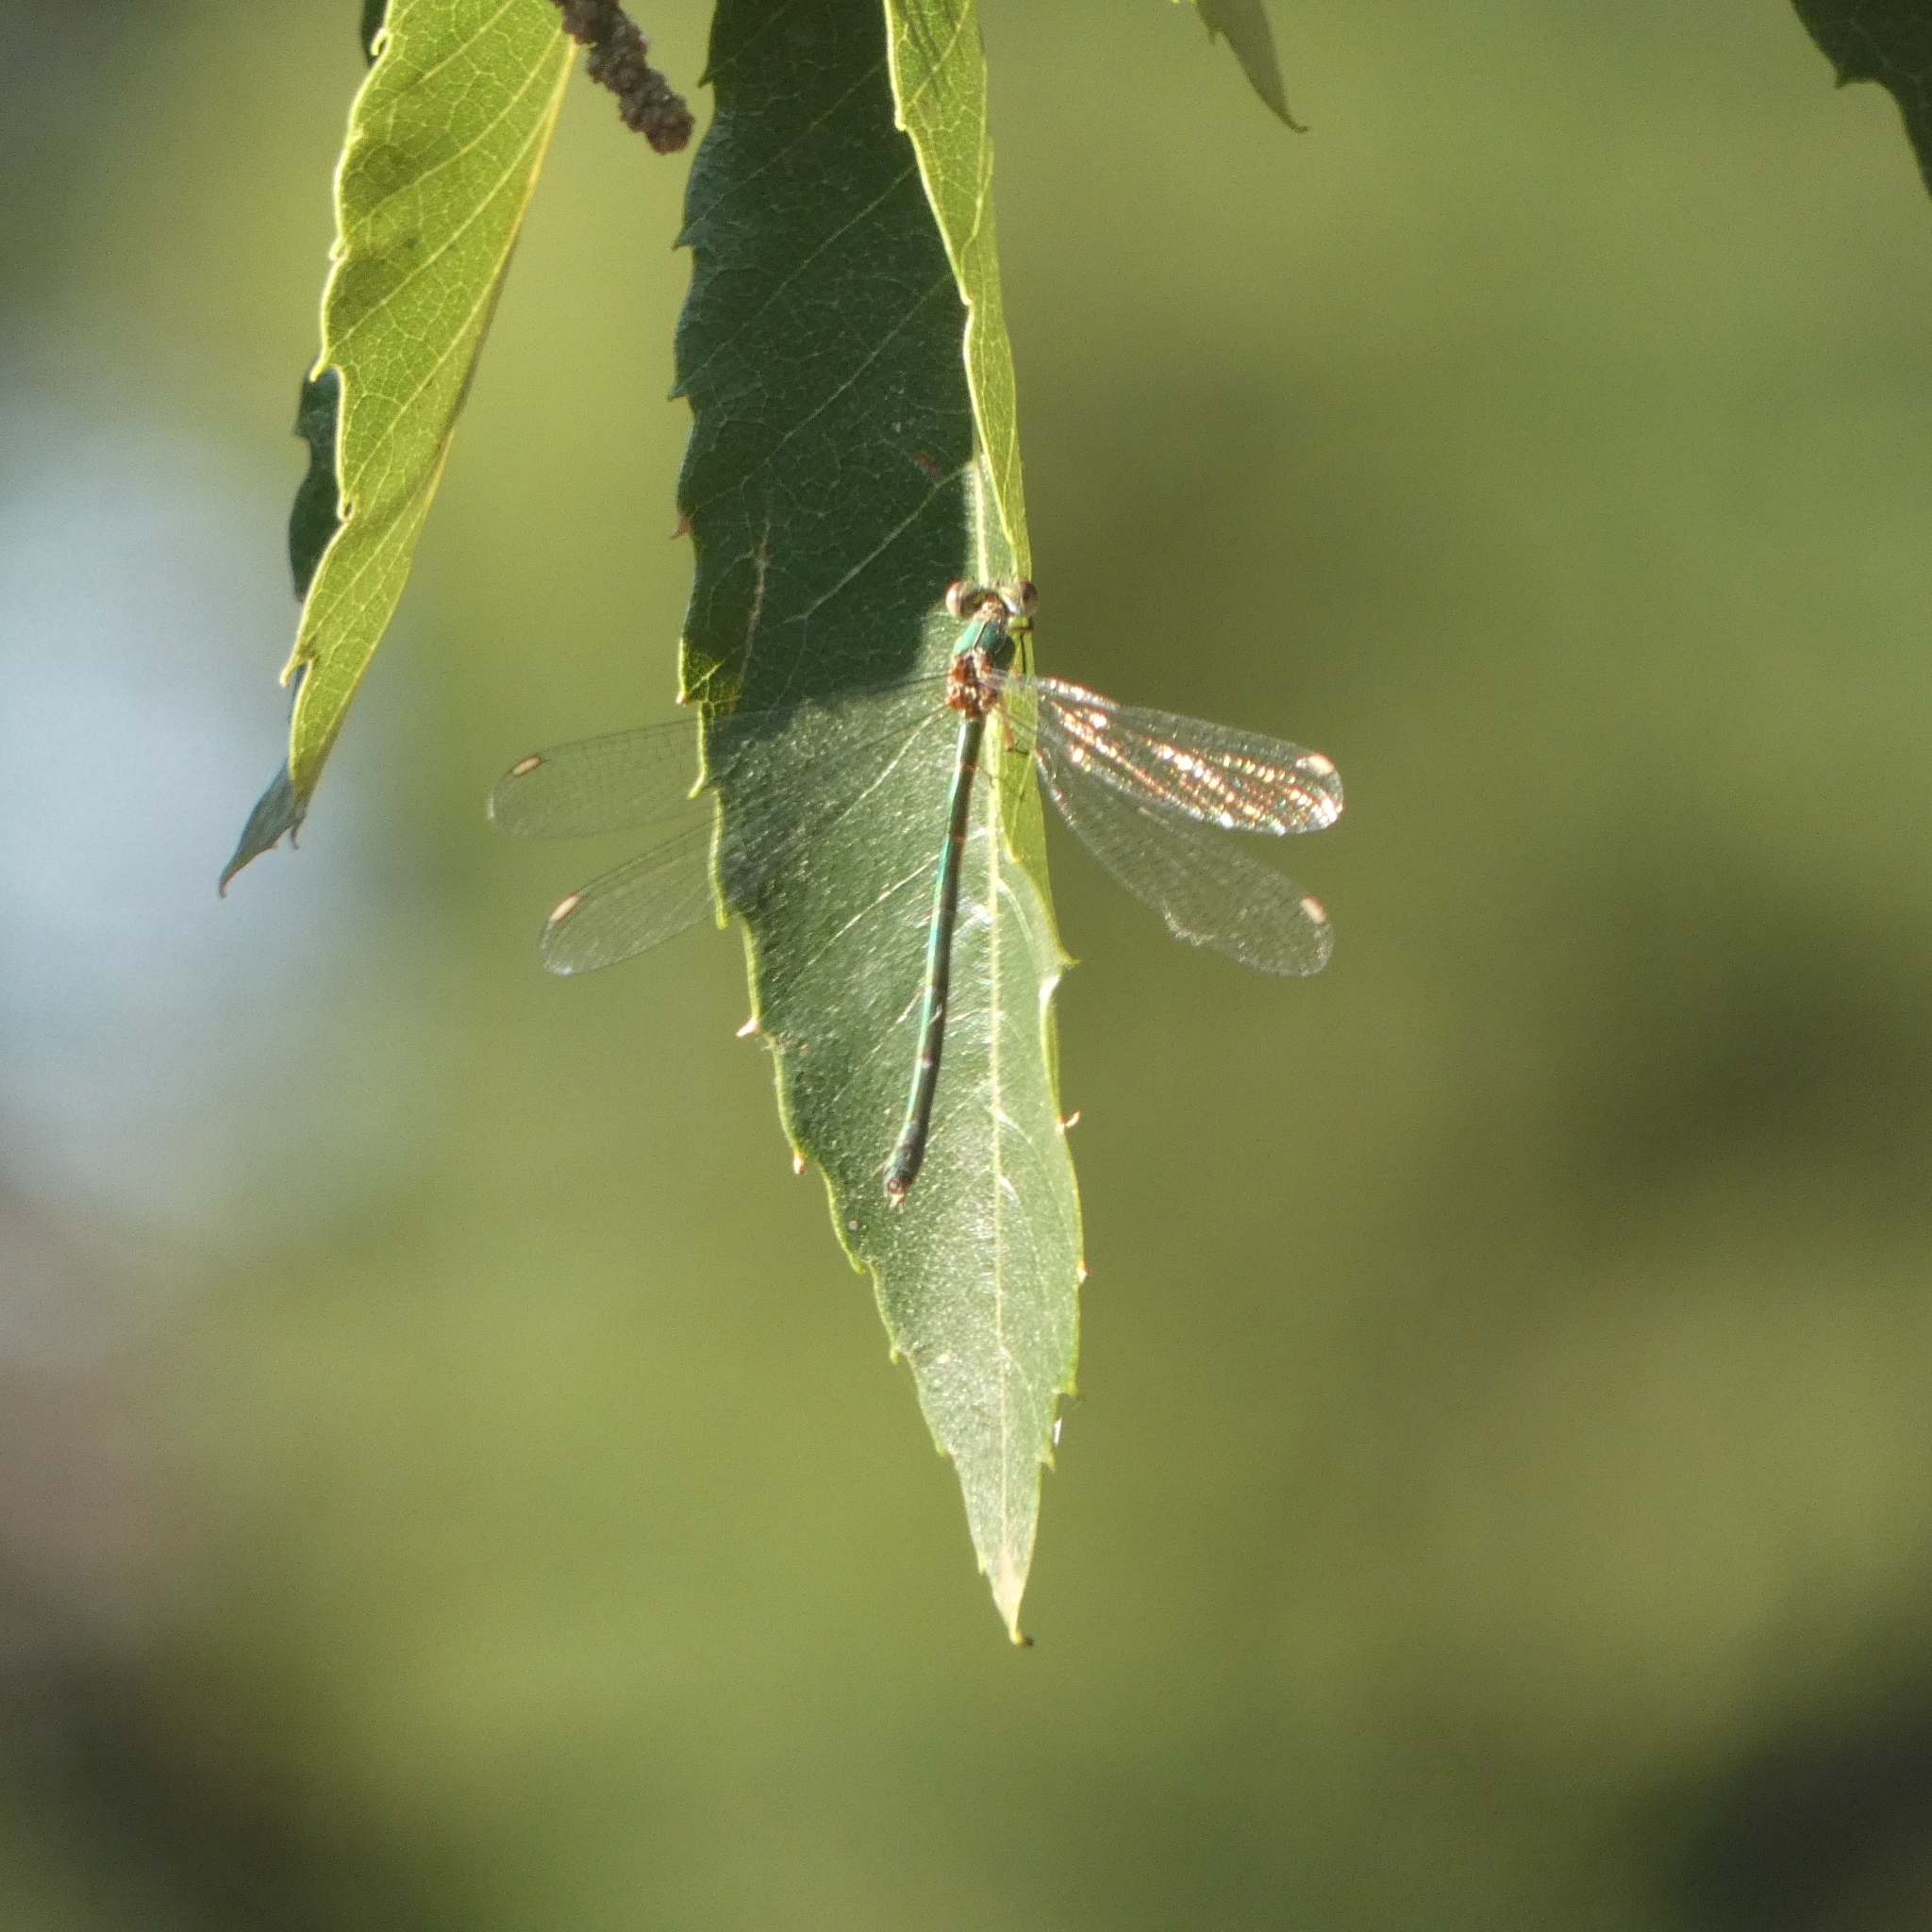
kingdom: Animalia
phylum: Arthropoda
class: Insecta
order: Odonata
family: Lestidae
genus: Chalcolestes
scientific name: Chalcolestes viridis
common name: Green emerald damselfly
